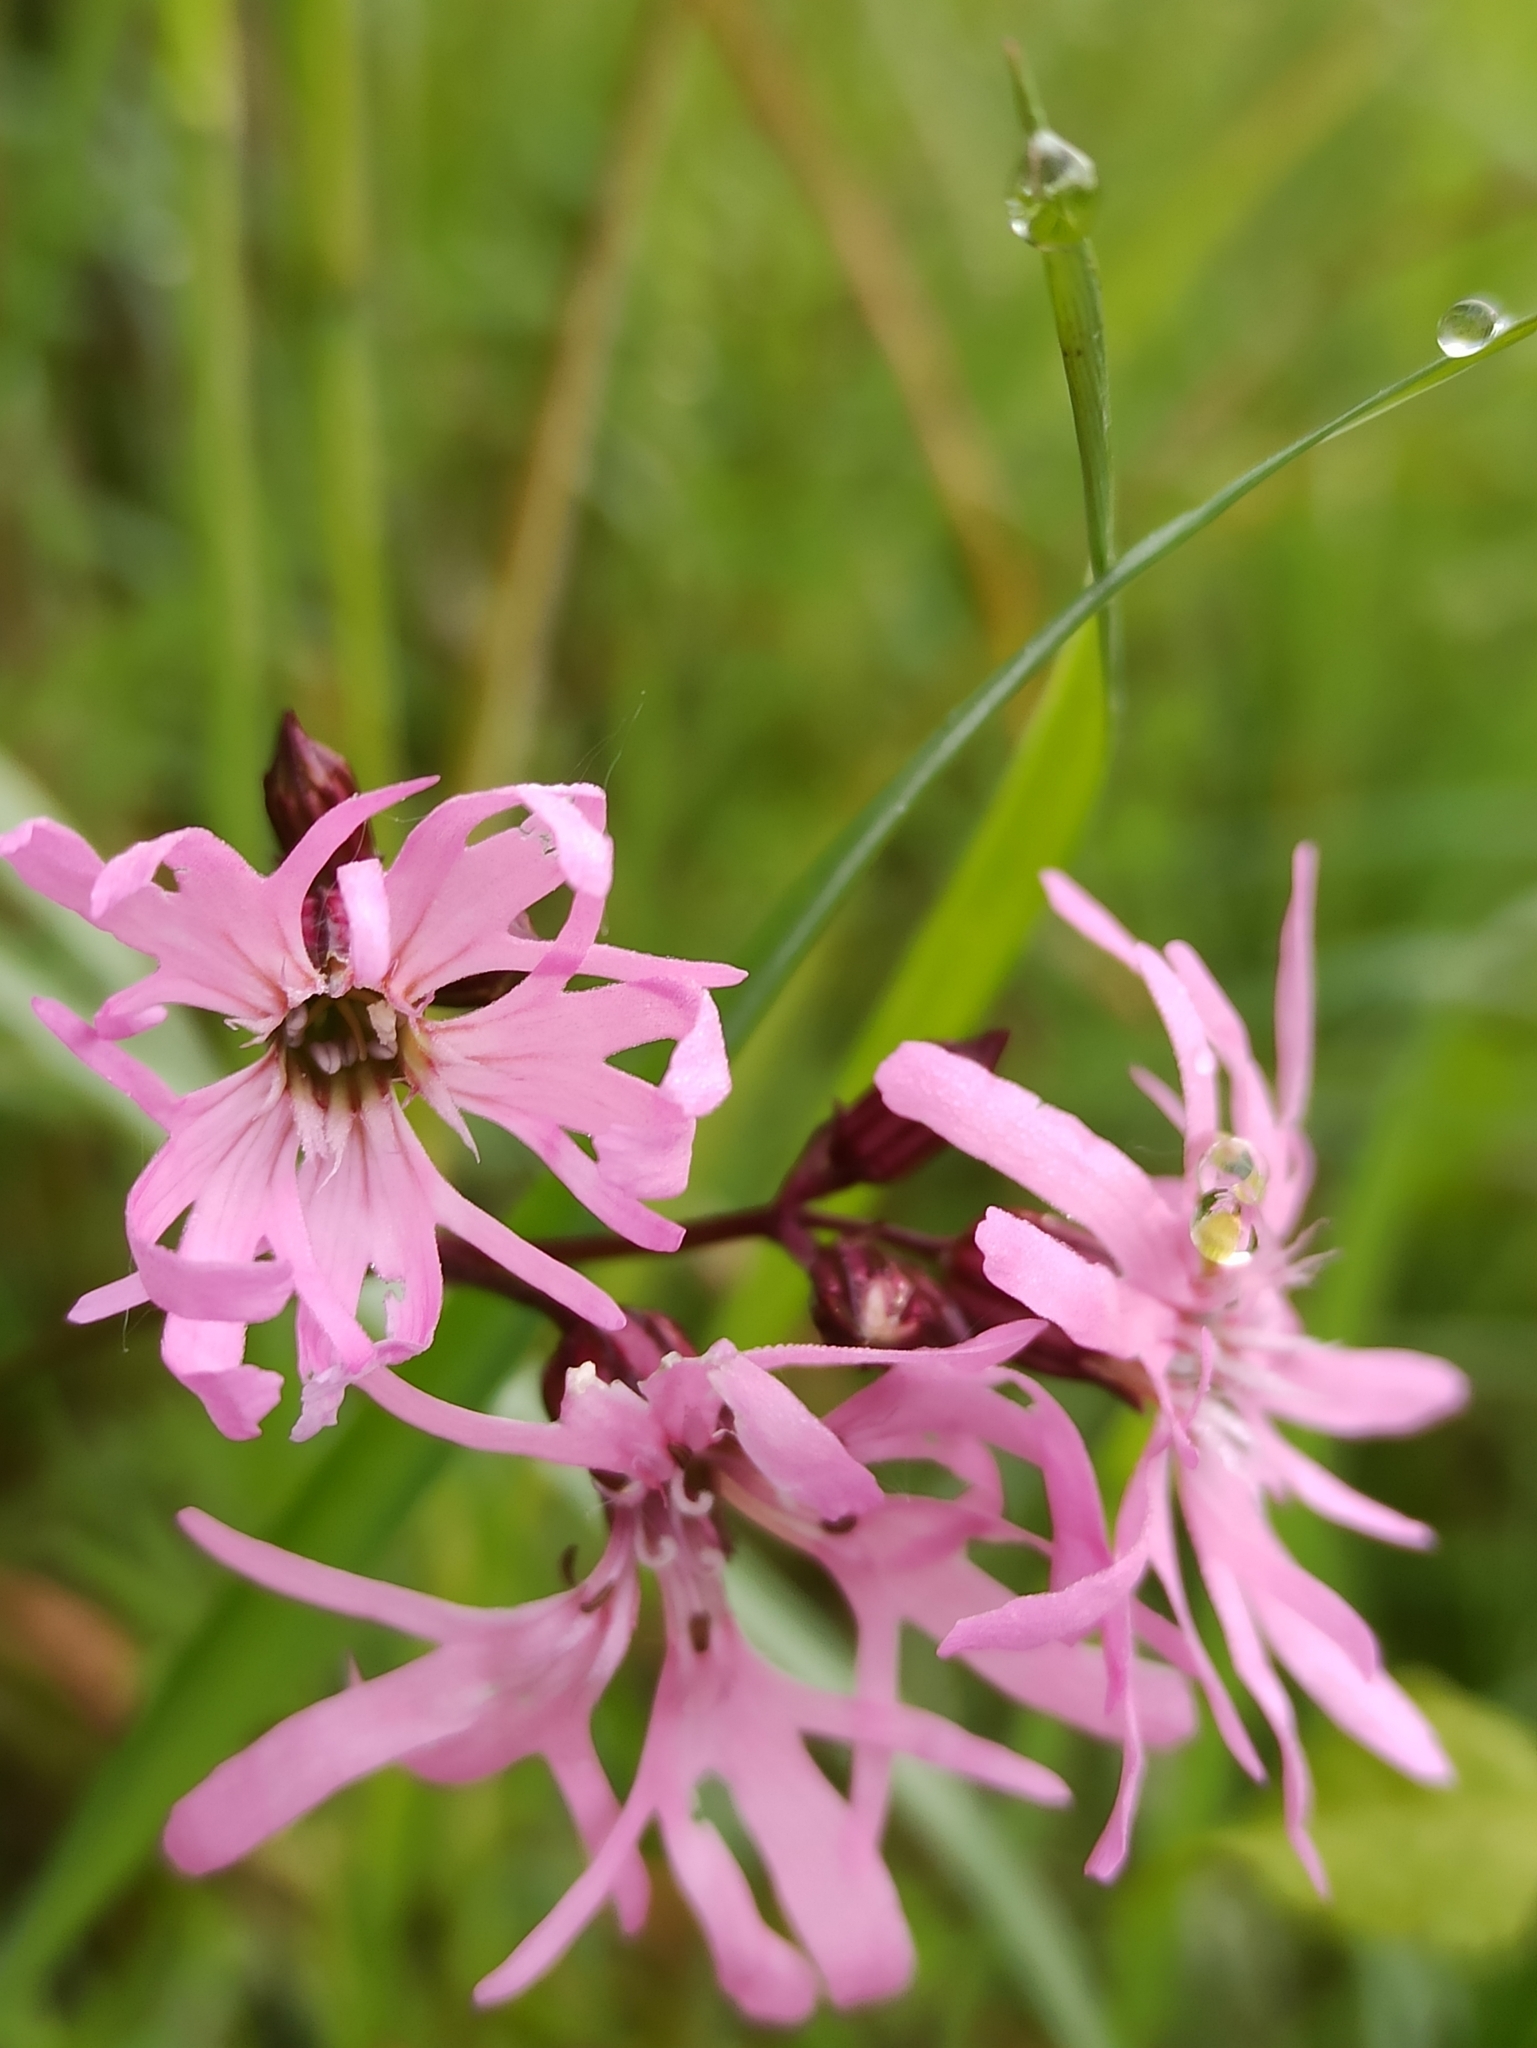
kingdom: Plantae
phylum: Tracheophyta
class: Magnoliopsida
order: Caryophyllales
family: Caryophyllaceae
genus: Silene
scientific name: Silene flos-cuculi
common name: Ragged-robin
